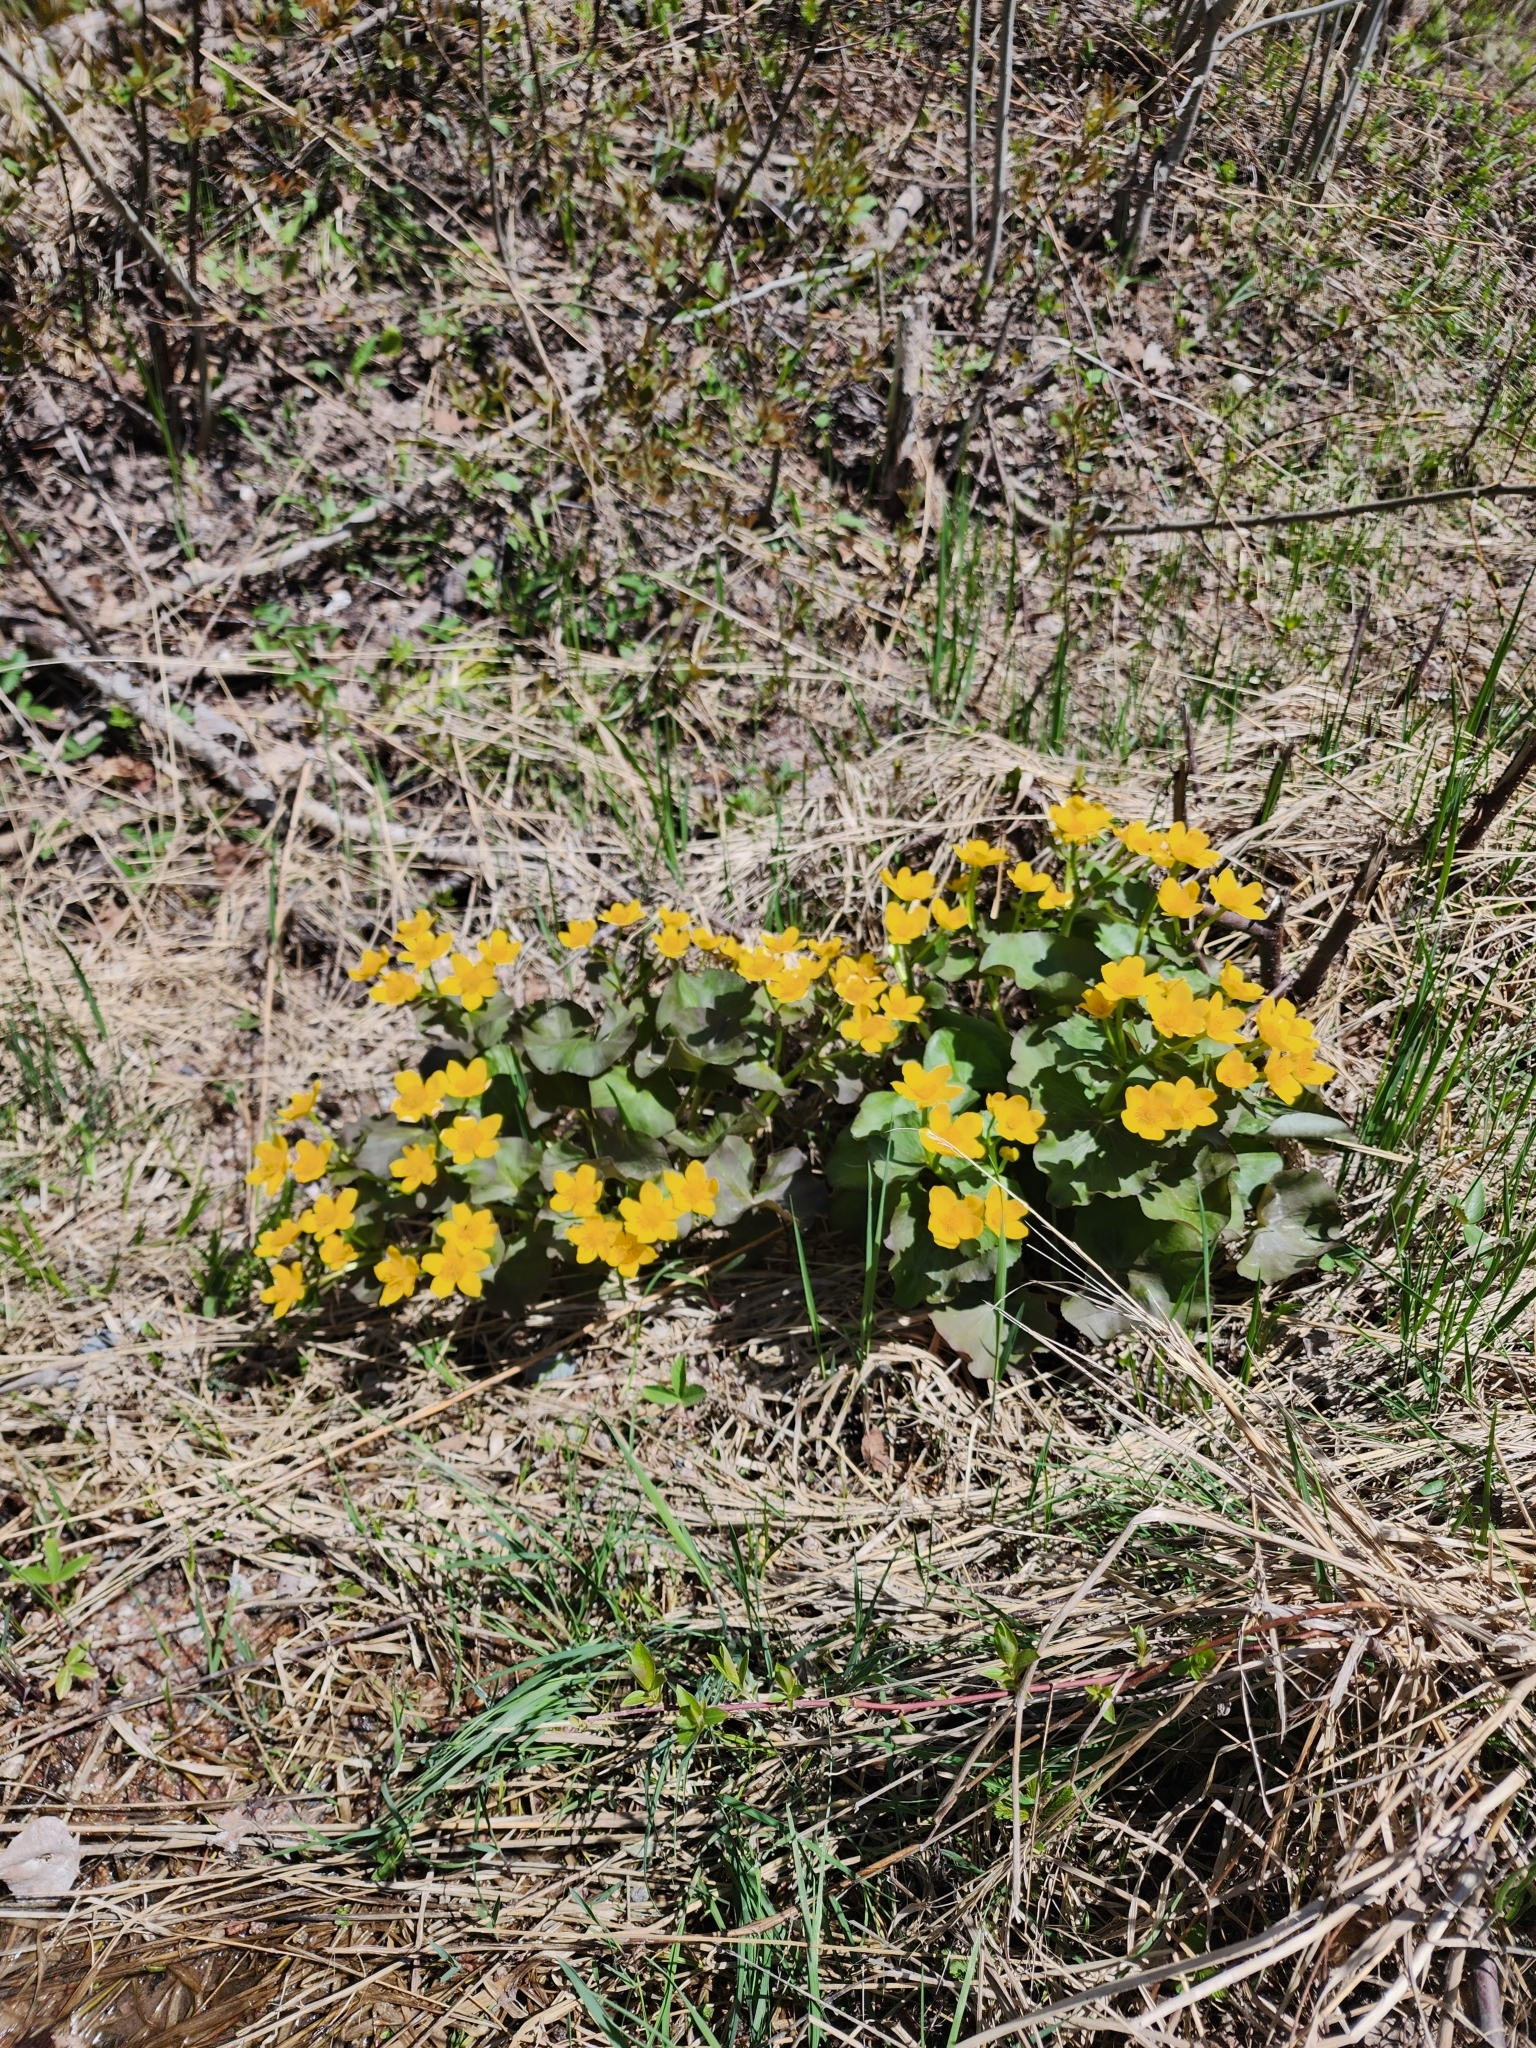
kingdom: Plantae
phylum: Tracheophyta
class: Magnoliopsida
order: Ranunculales
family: Ranunculaceae
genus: Caltha
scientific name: Caltha palustris
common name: Marsh marigold
